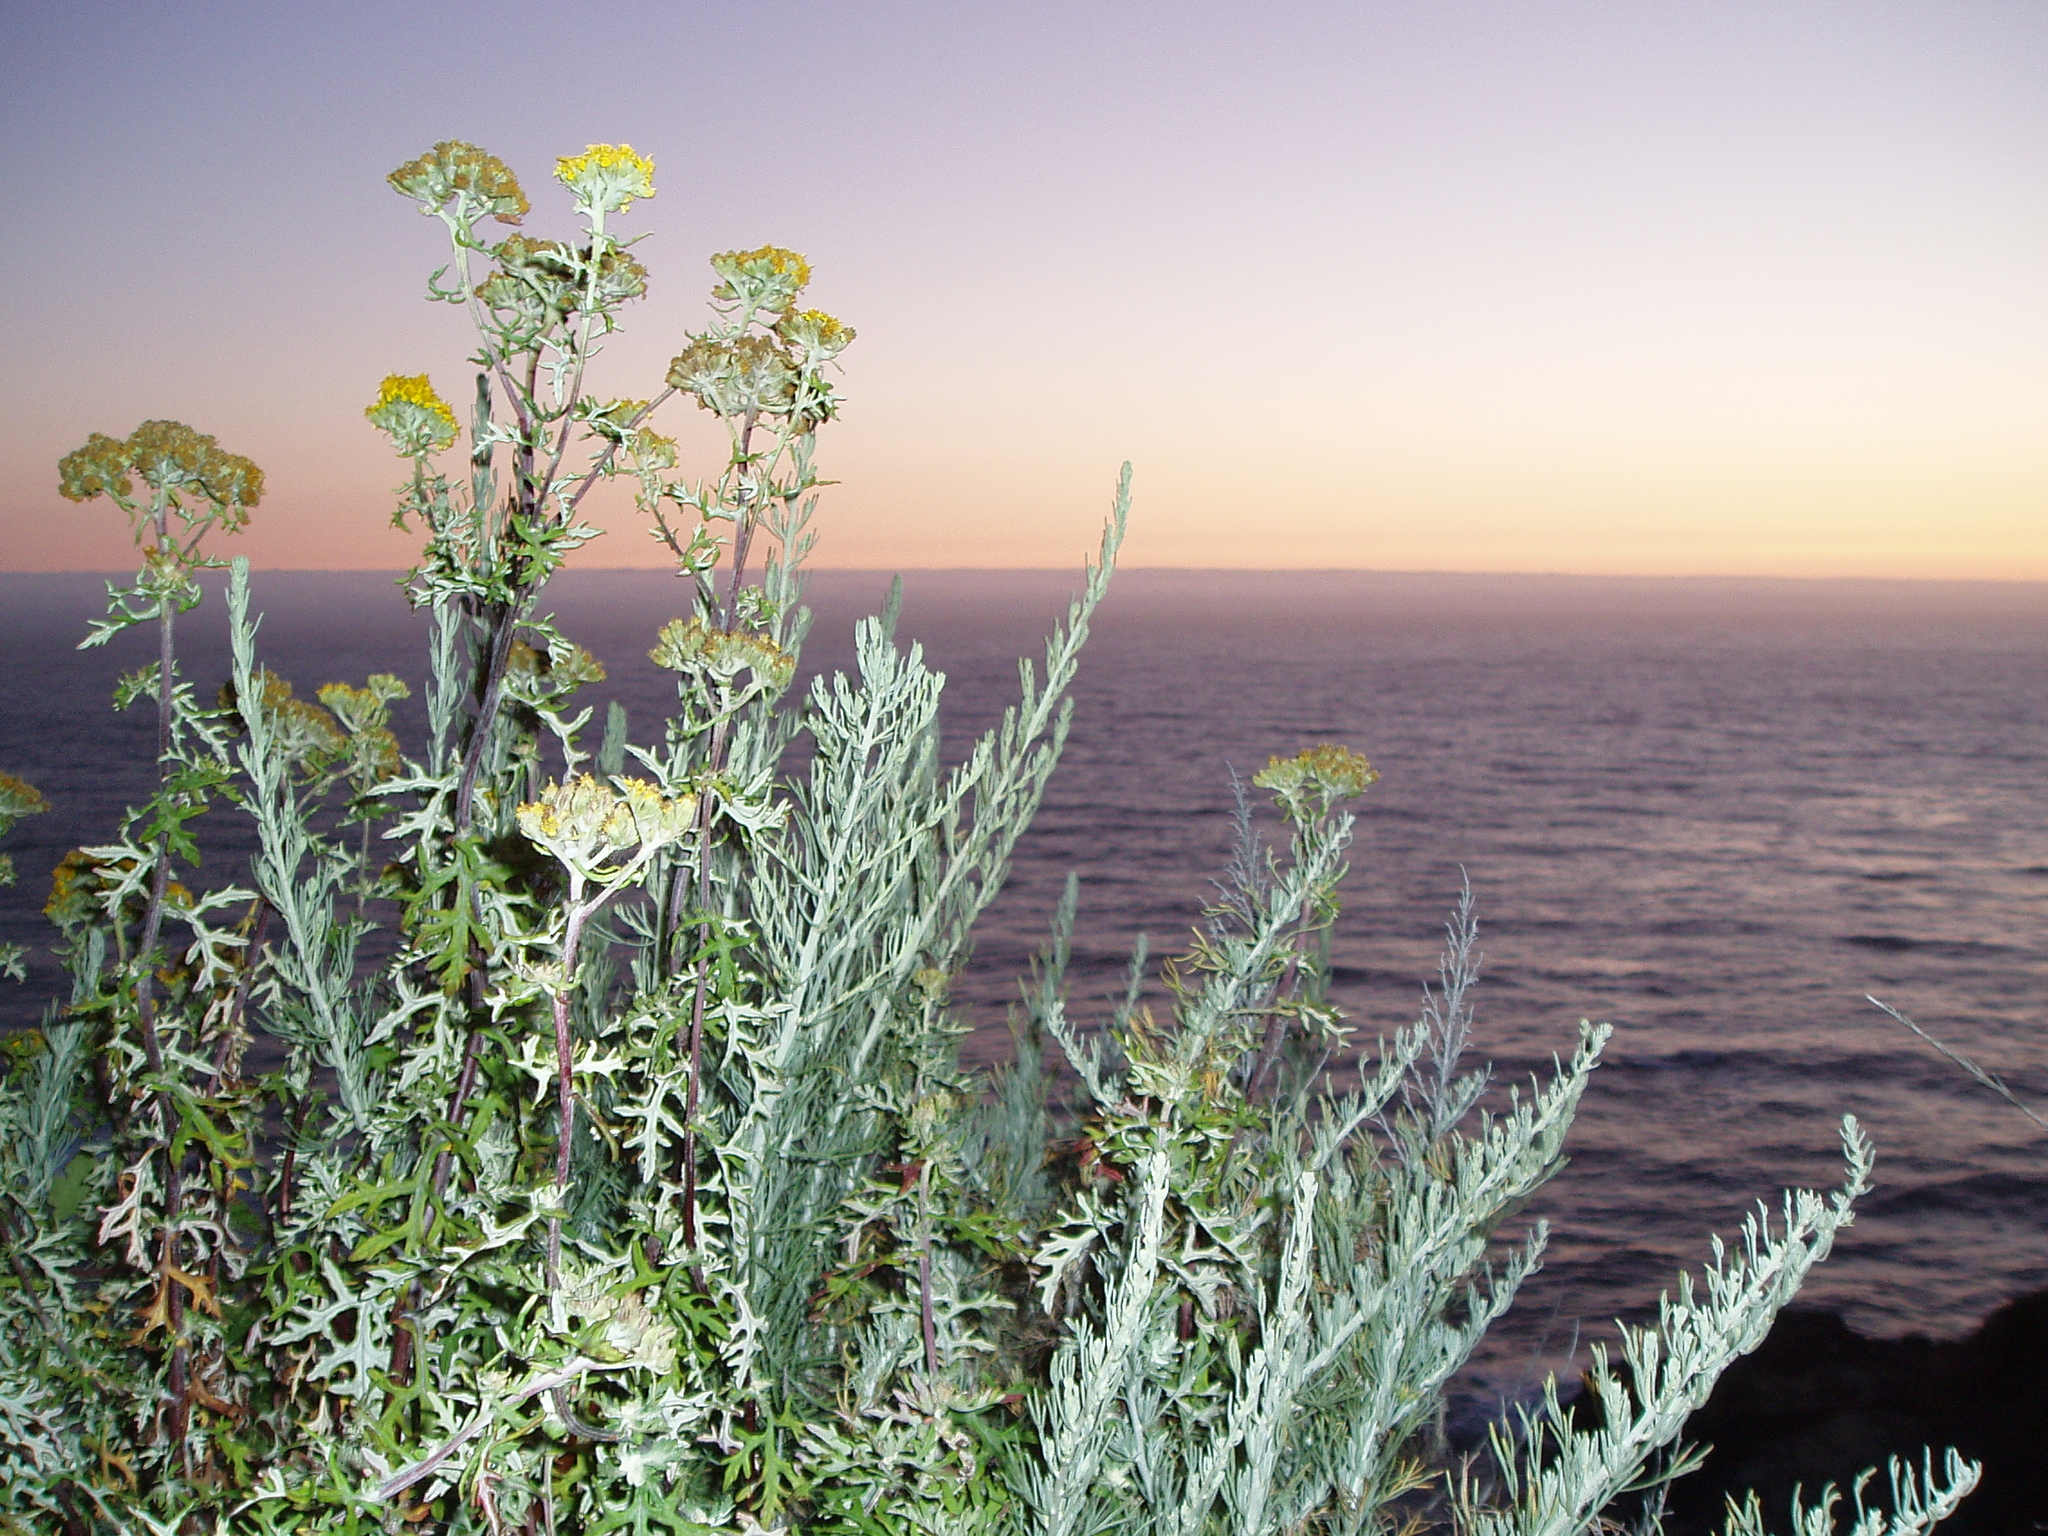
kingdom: Plantae
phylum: Tracheophyta
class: Magnoliopsida
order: Asterales
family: Asteraceae
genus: Artemisia
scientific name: Artemisia californica
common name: California sagebrush
